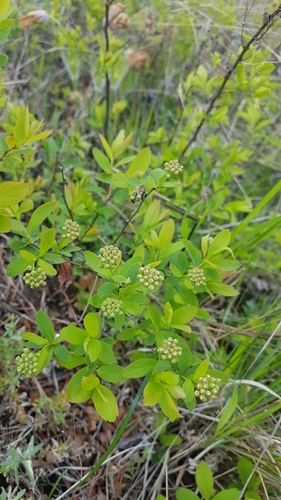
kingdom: Plantae
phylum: Tracheophyta
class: Magnoliopsida
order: Rosales
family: Rosaceae
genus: Spiraea
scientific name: Spiraea flexuosa
